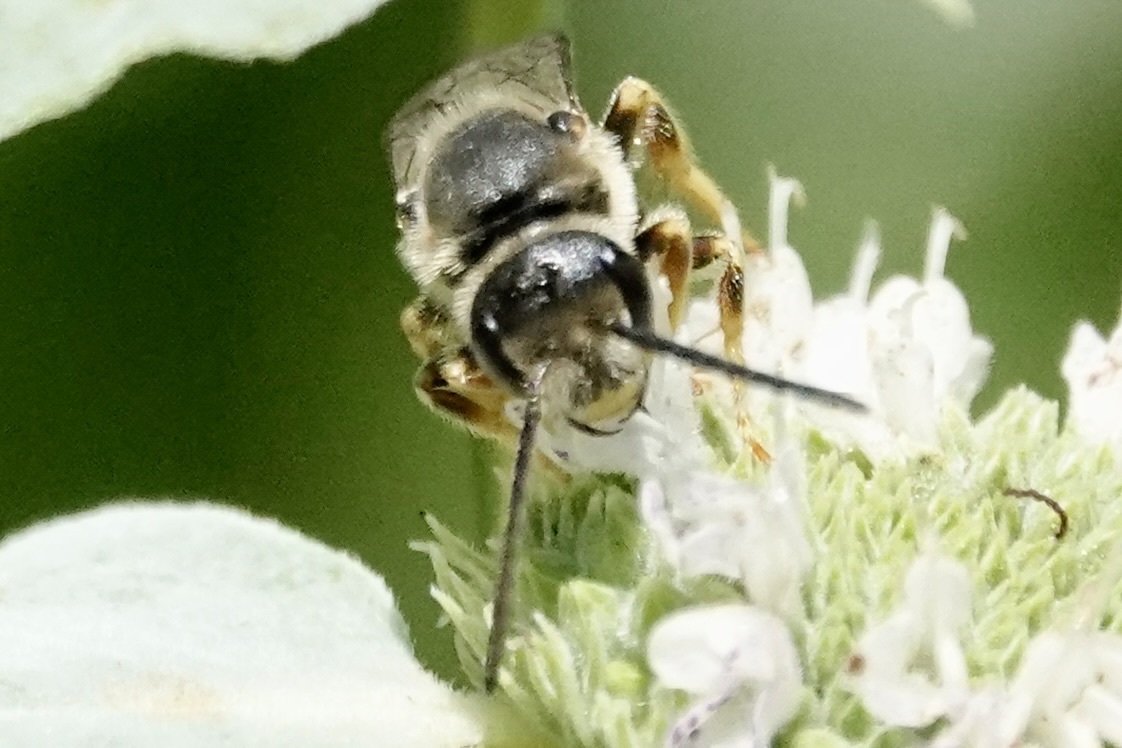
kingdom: Animalia
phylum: Arthropoda
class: Insecta
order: Hymenoptera
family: Halictidae
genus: Halictus
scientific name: Halictus rubicundus
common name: Orange-legged furrow bee
